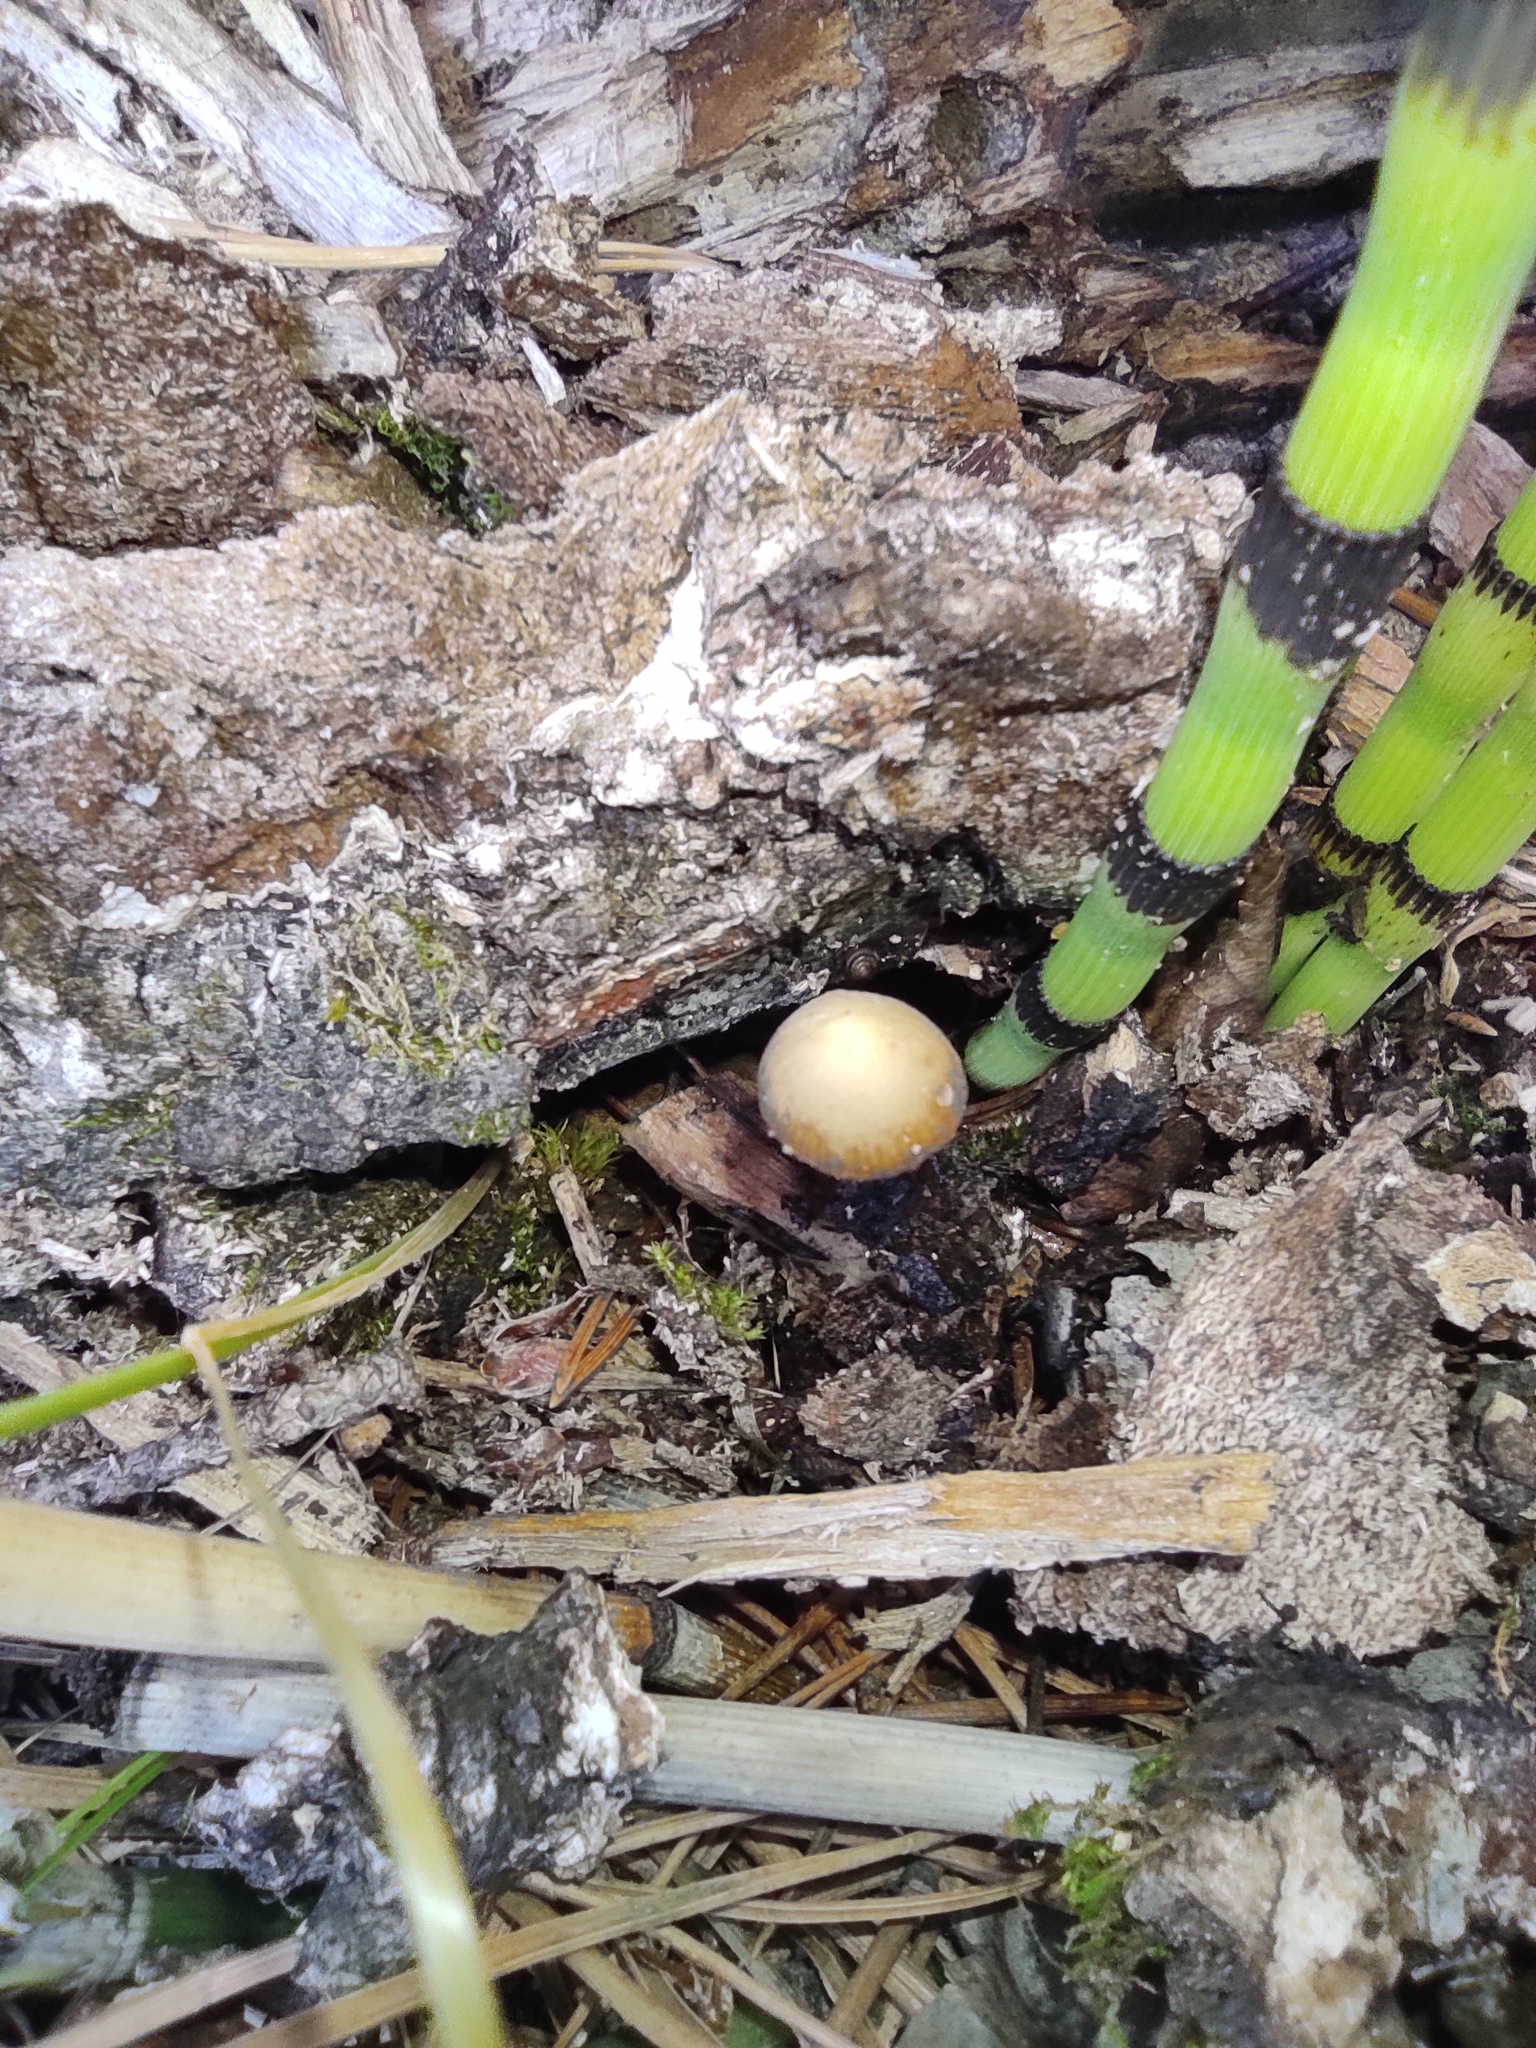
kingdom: Plantae
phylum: Tracheophyta
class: Polypodiopsida
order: Equisetales
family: Equisetaceae
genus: Equisetum
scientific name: Equisetum hyemale
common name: Rough horsetail
